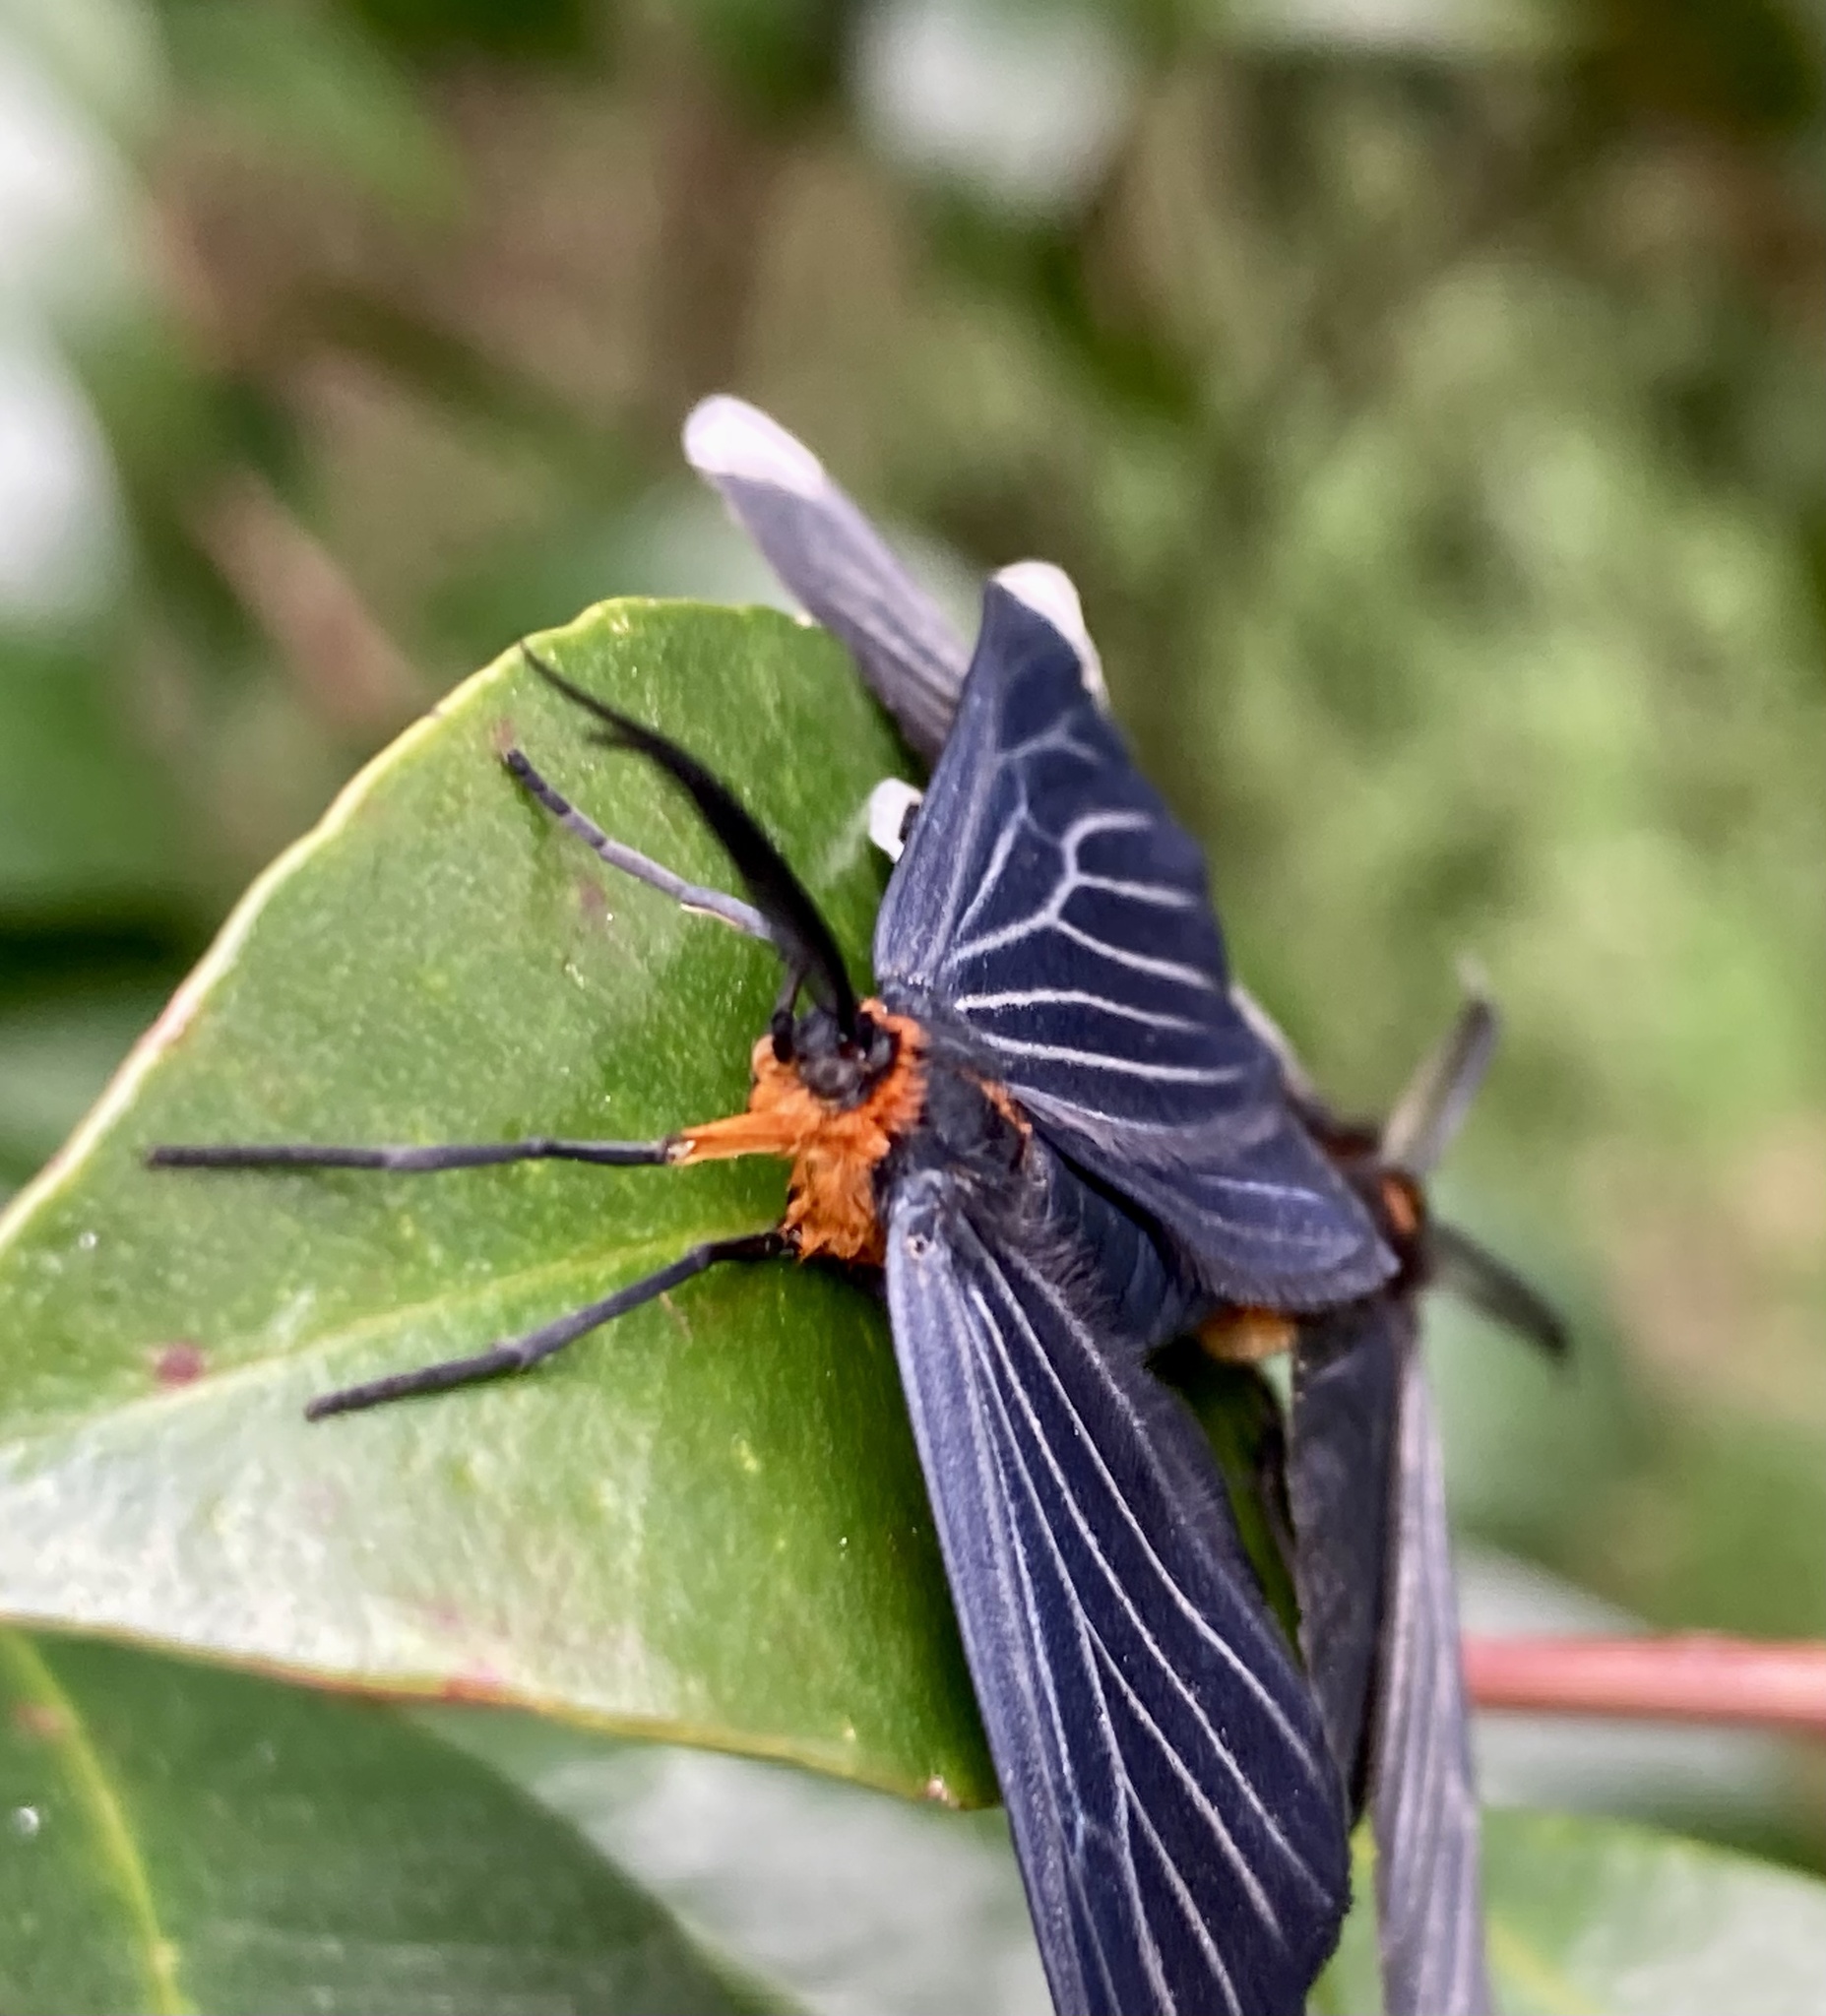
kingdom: Animalia
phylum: Arthropoda
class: Insecta
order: Lepidoptera
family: Geometridae
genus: Melanchroia
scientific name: Melanchroia chephise
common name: White-tipped black
